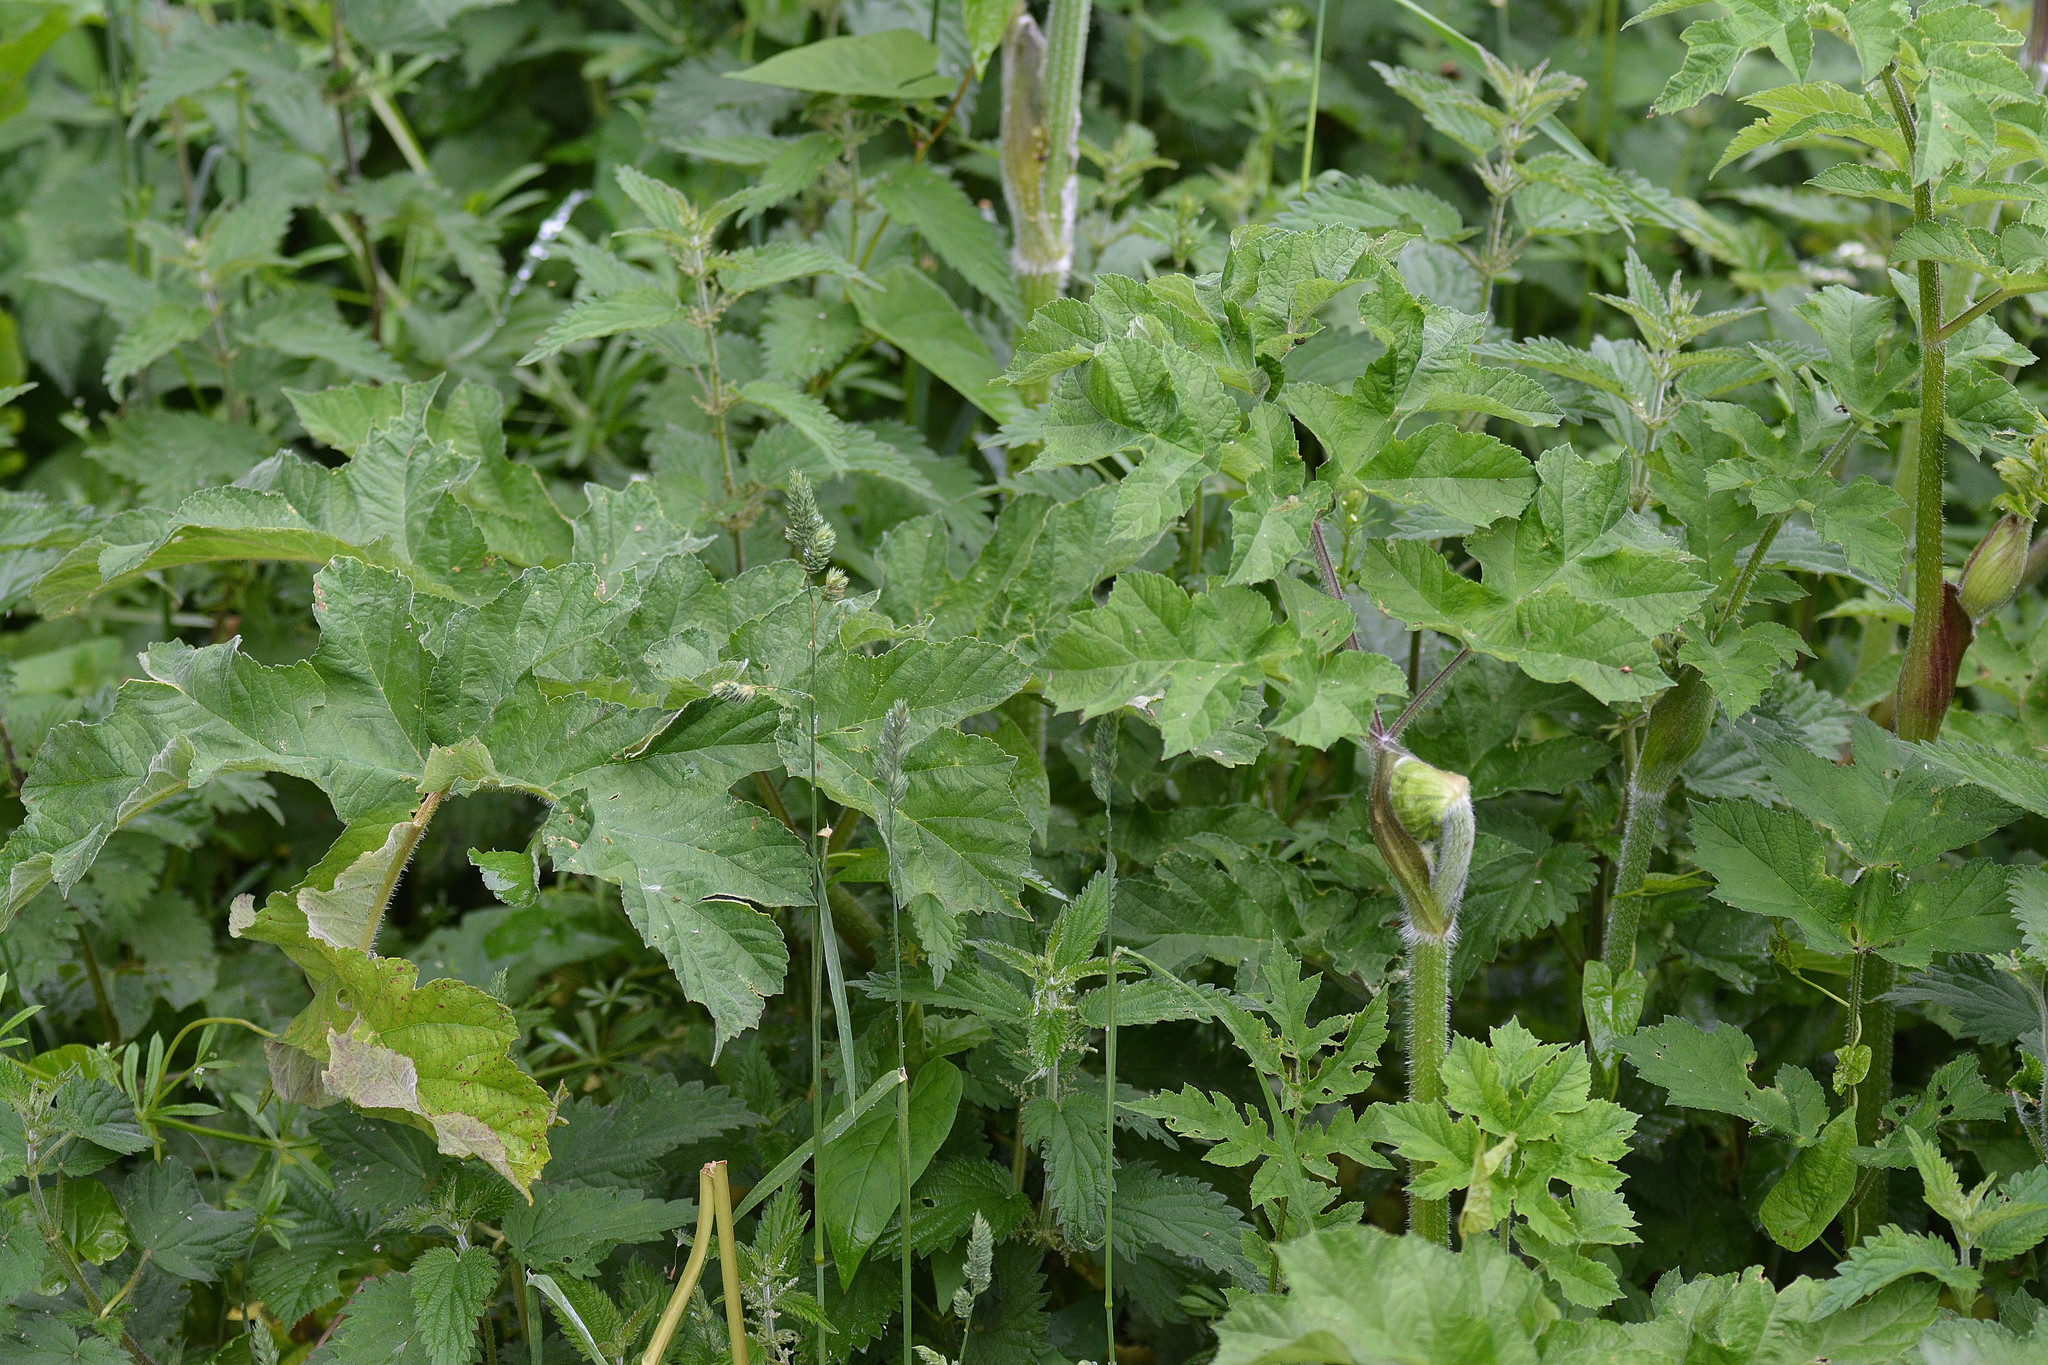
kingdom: Plantae
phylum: Tracheophyta
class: Magnoliopsida
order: Apiales
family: Apiaceae
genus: Heracleum
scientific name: Heracleum sphondylium
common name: Hogweed
